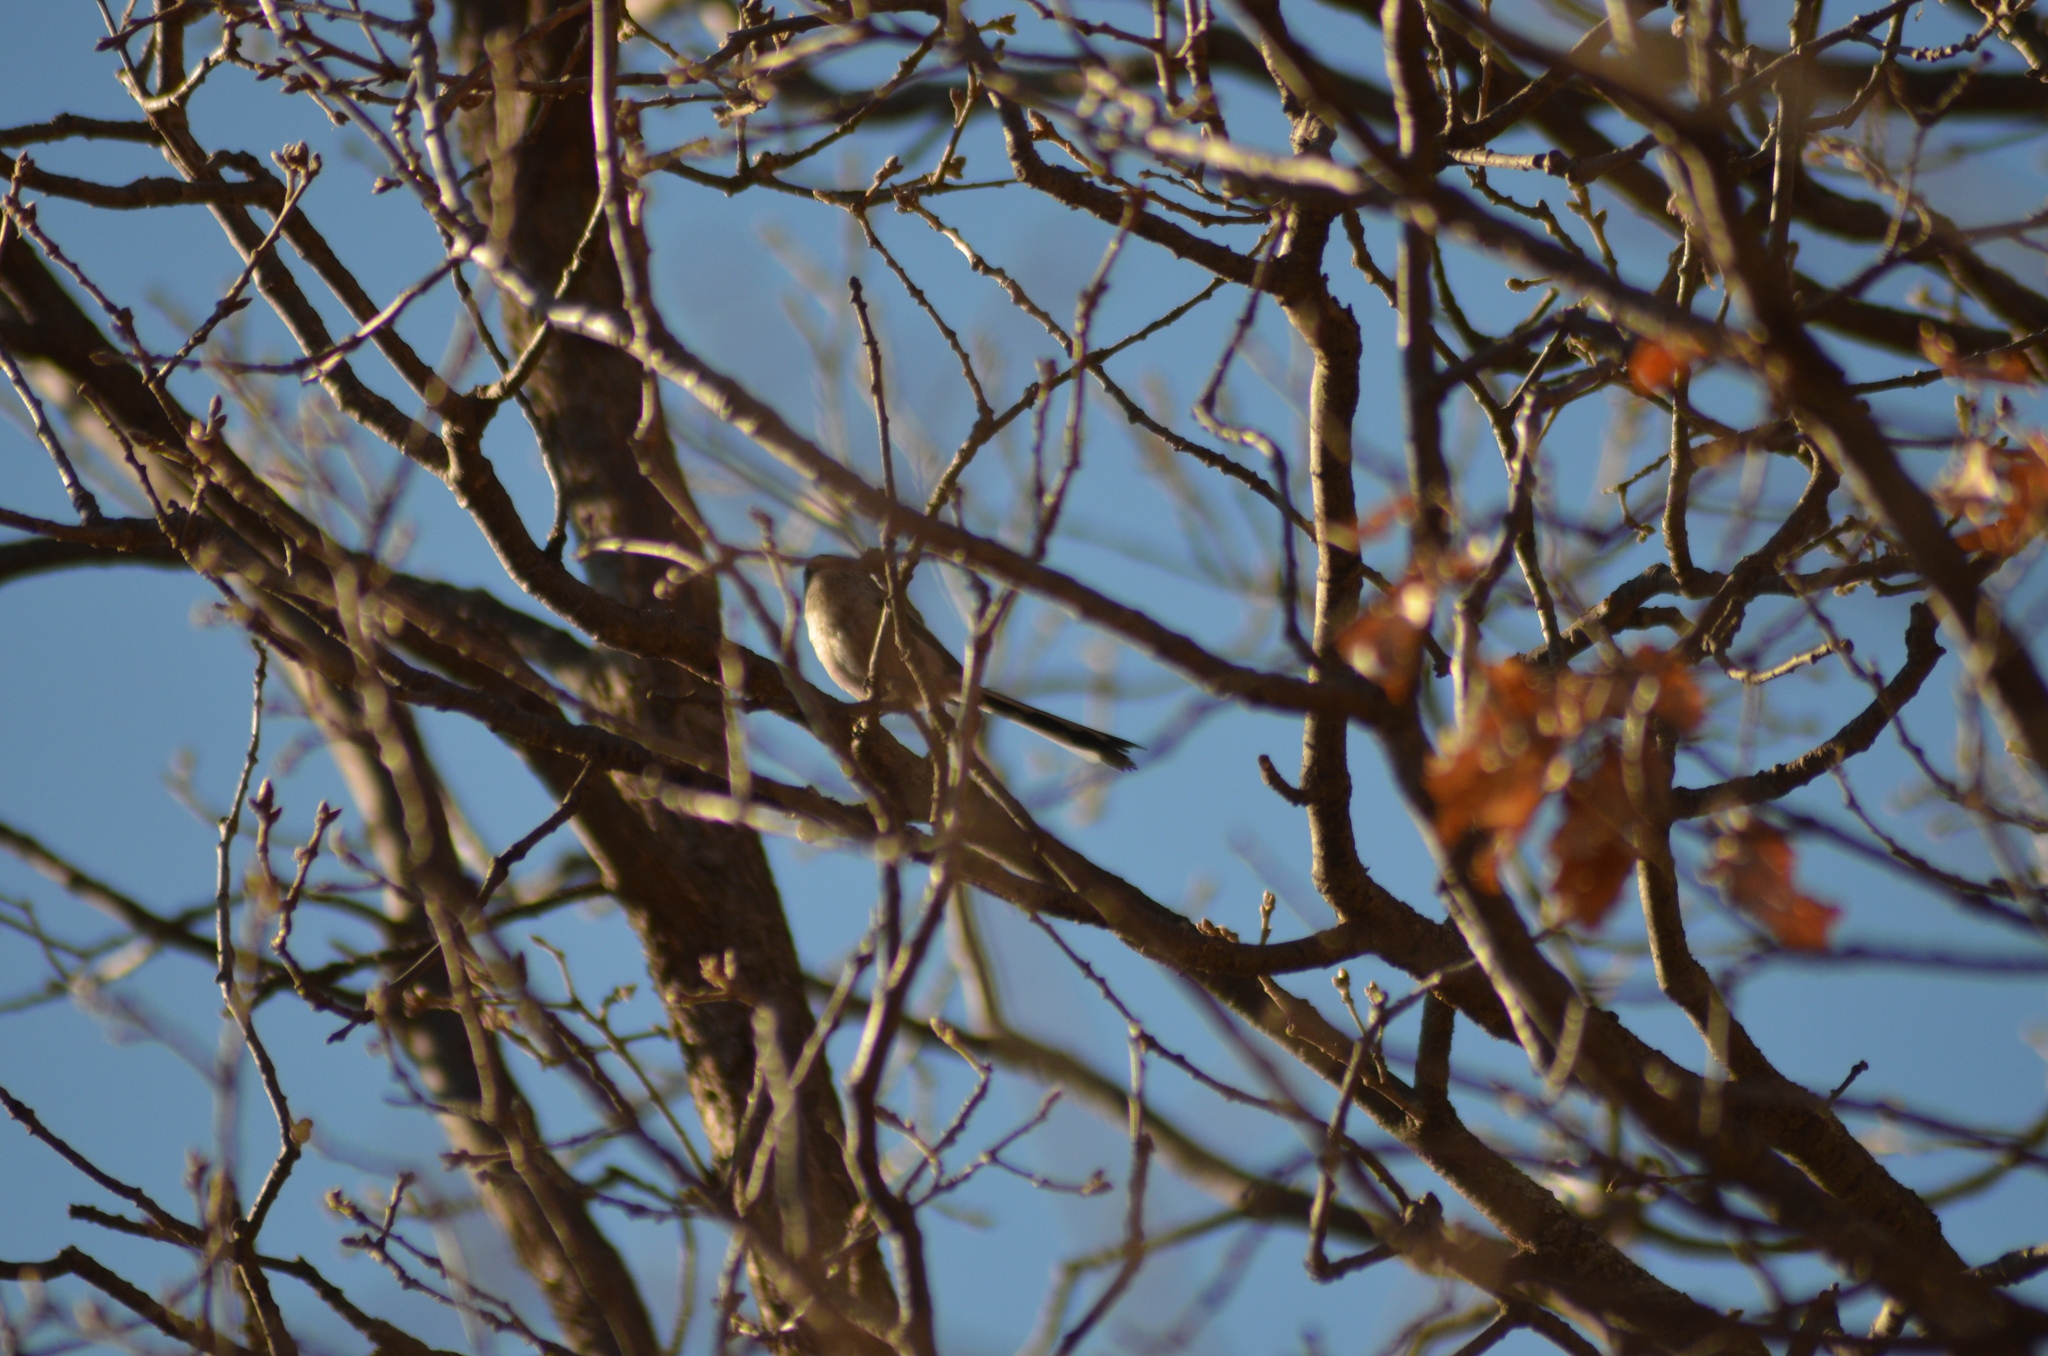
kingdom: Animalia
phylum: Chordata
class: Aves
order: Passeriformes
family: Aegithalidae
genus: Aegithalos
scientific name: Aegithalos caudatus
